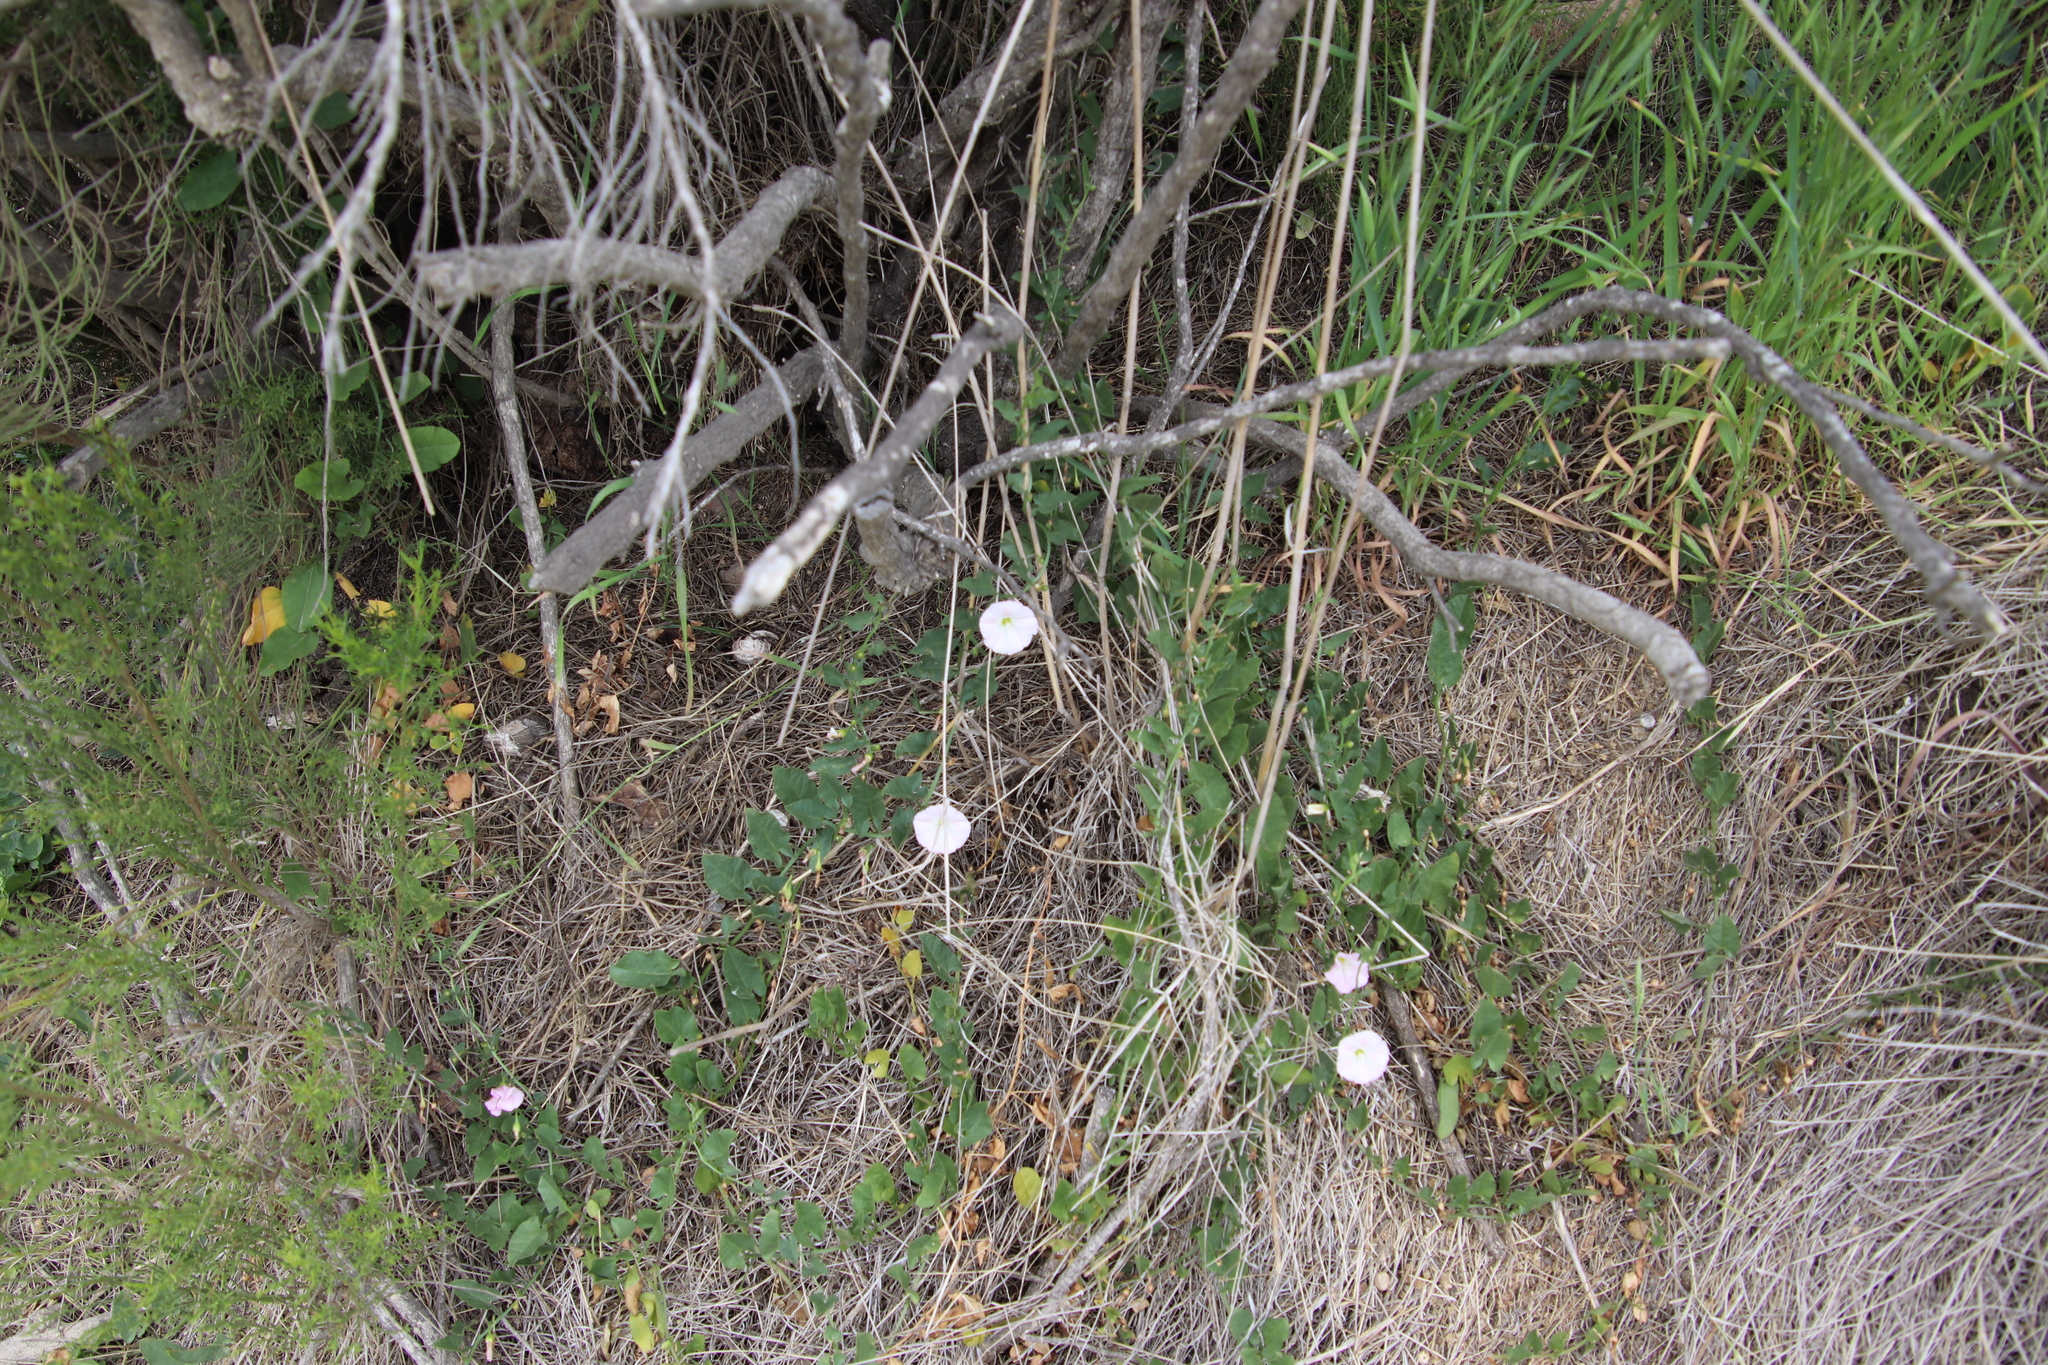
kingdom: Plantae
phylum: Tracheophyta
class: Magnoliopsida
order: Solanales
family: Convolvulaceae
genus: Convolvulus
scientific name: Convolvulus arvensis
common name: Field bindweed
